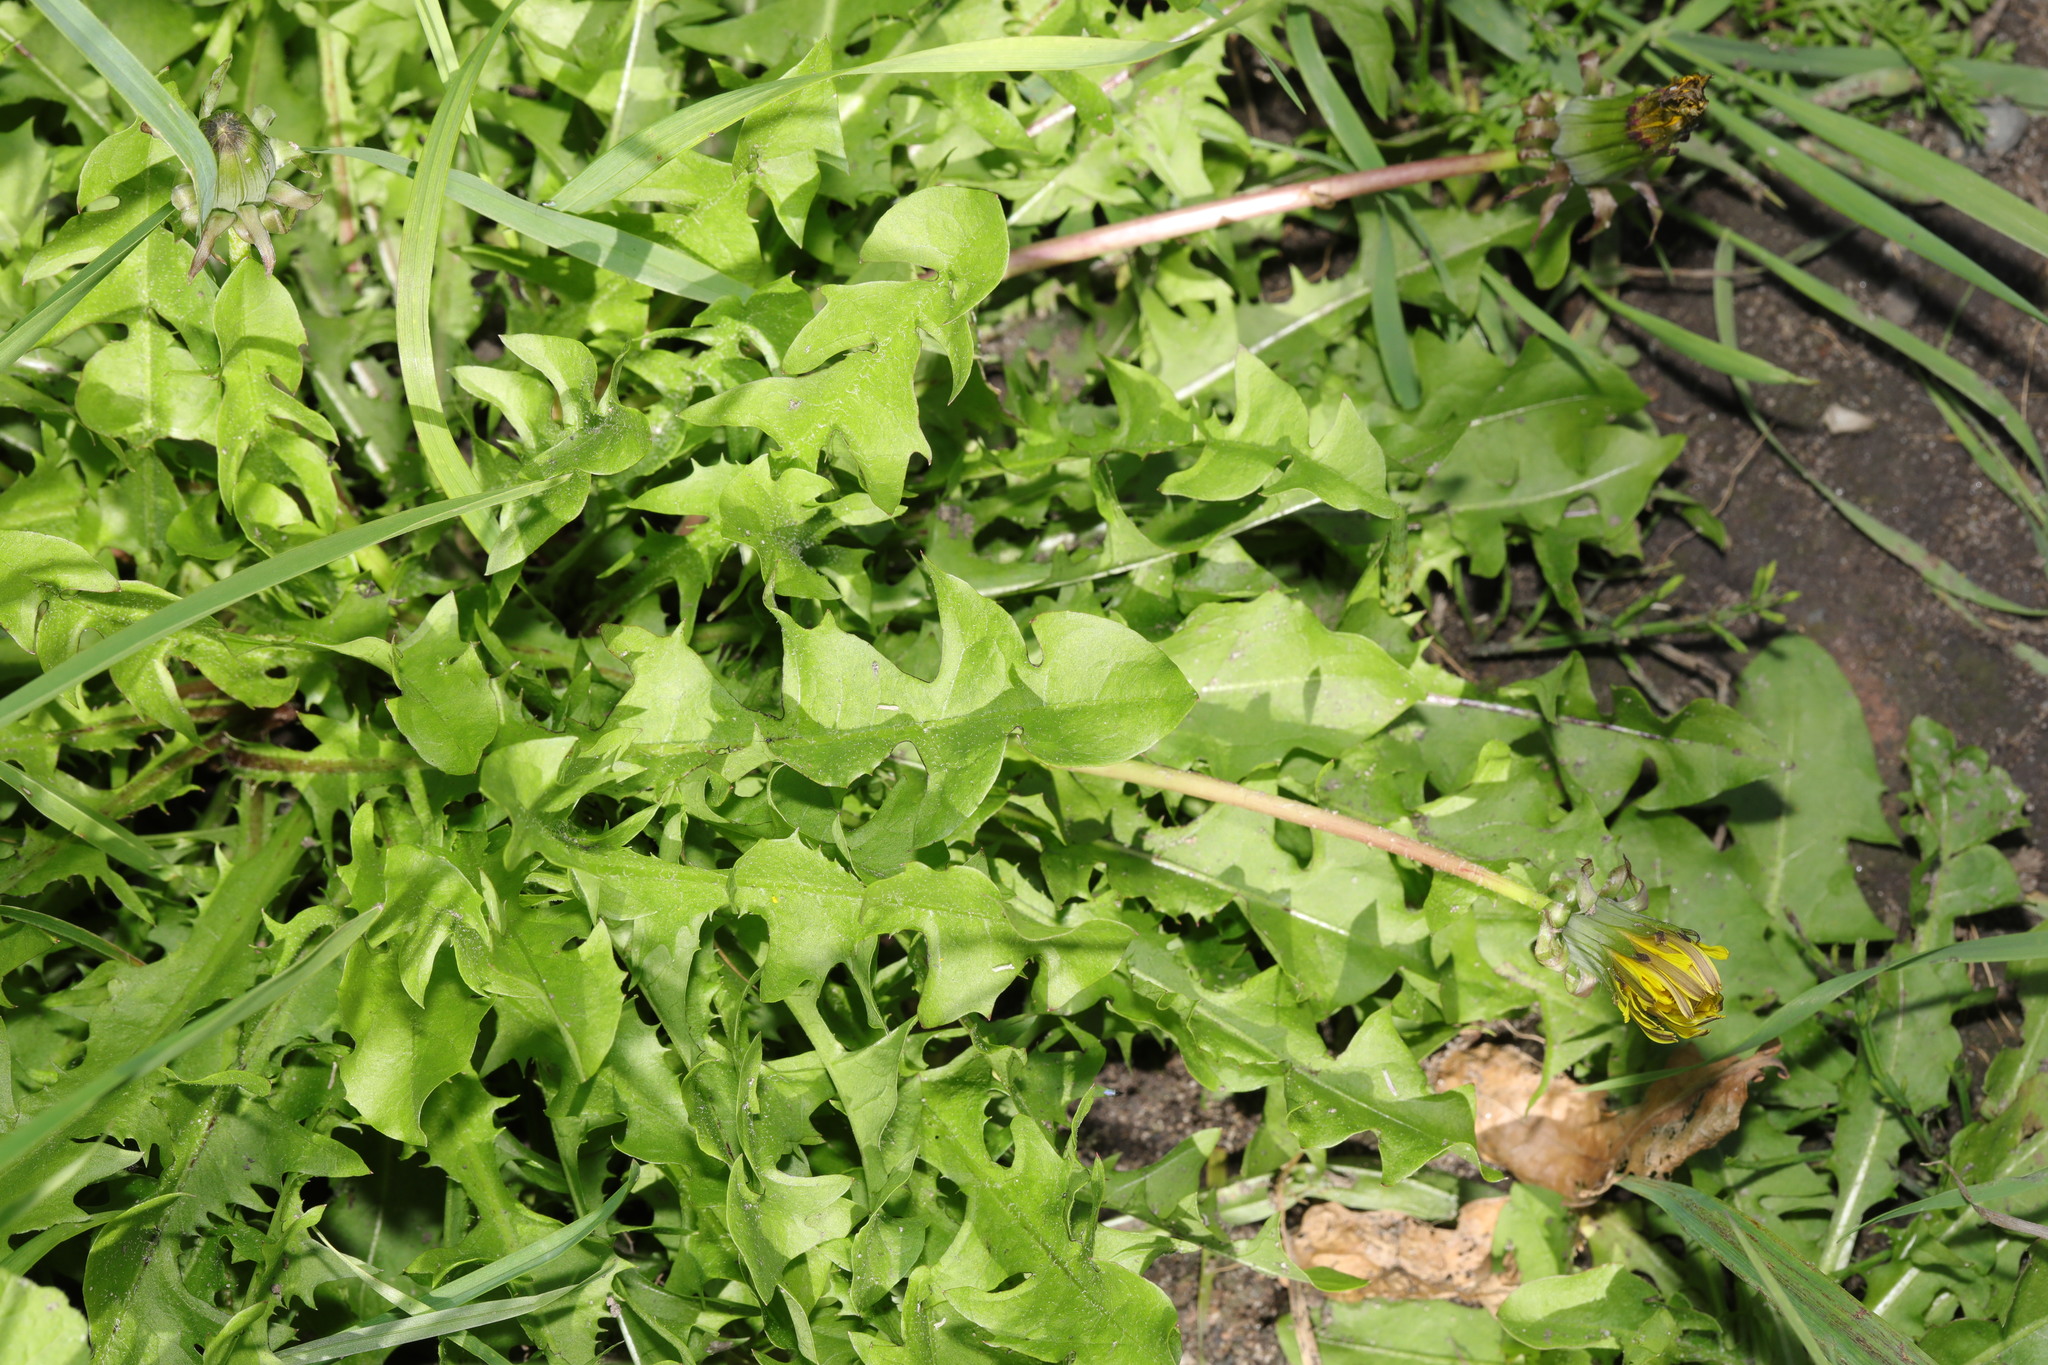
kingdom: Plantae
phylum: Tracheophyta
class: Magnoliopsida
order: Asterales
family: Asteraceae
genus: Taraxacum
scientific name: Taraxacum officinale
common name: Common dandelion
